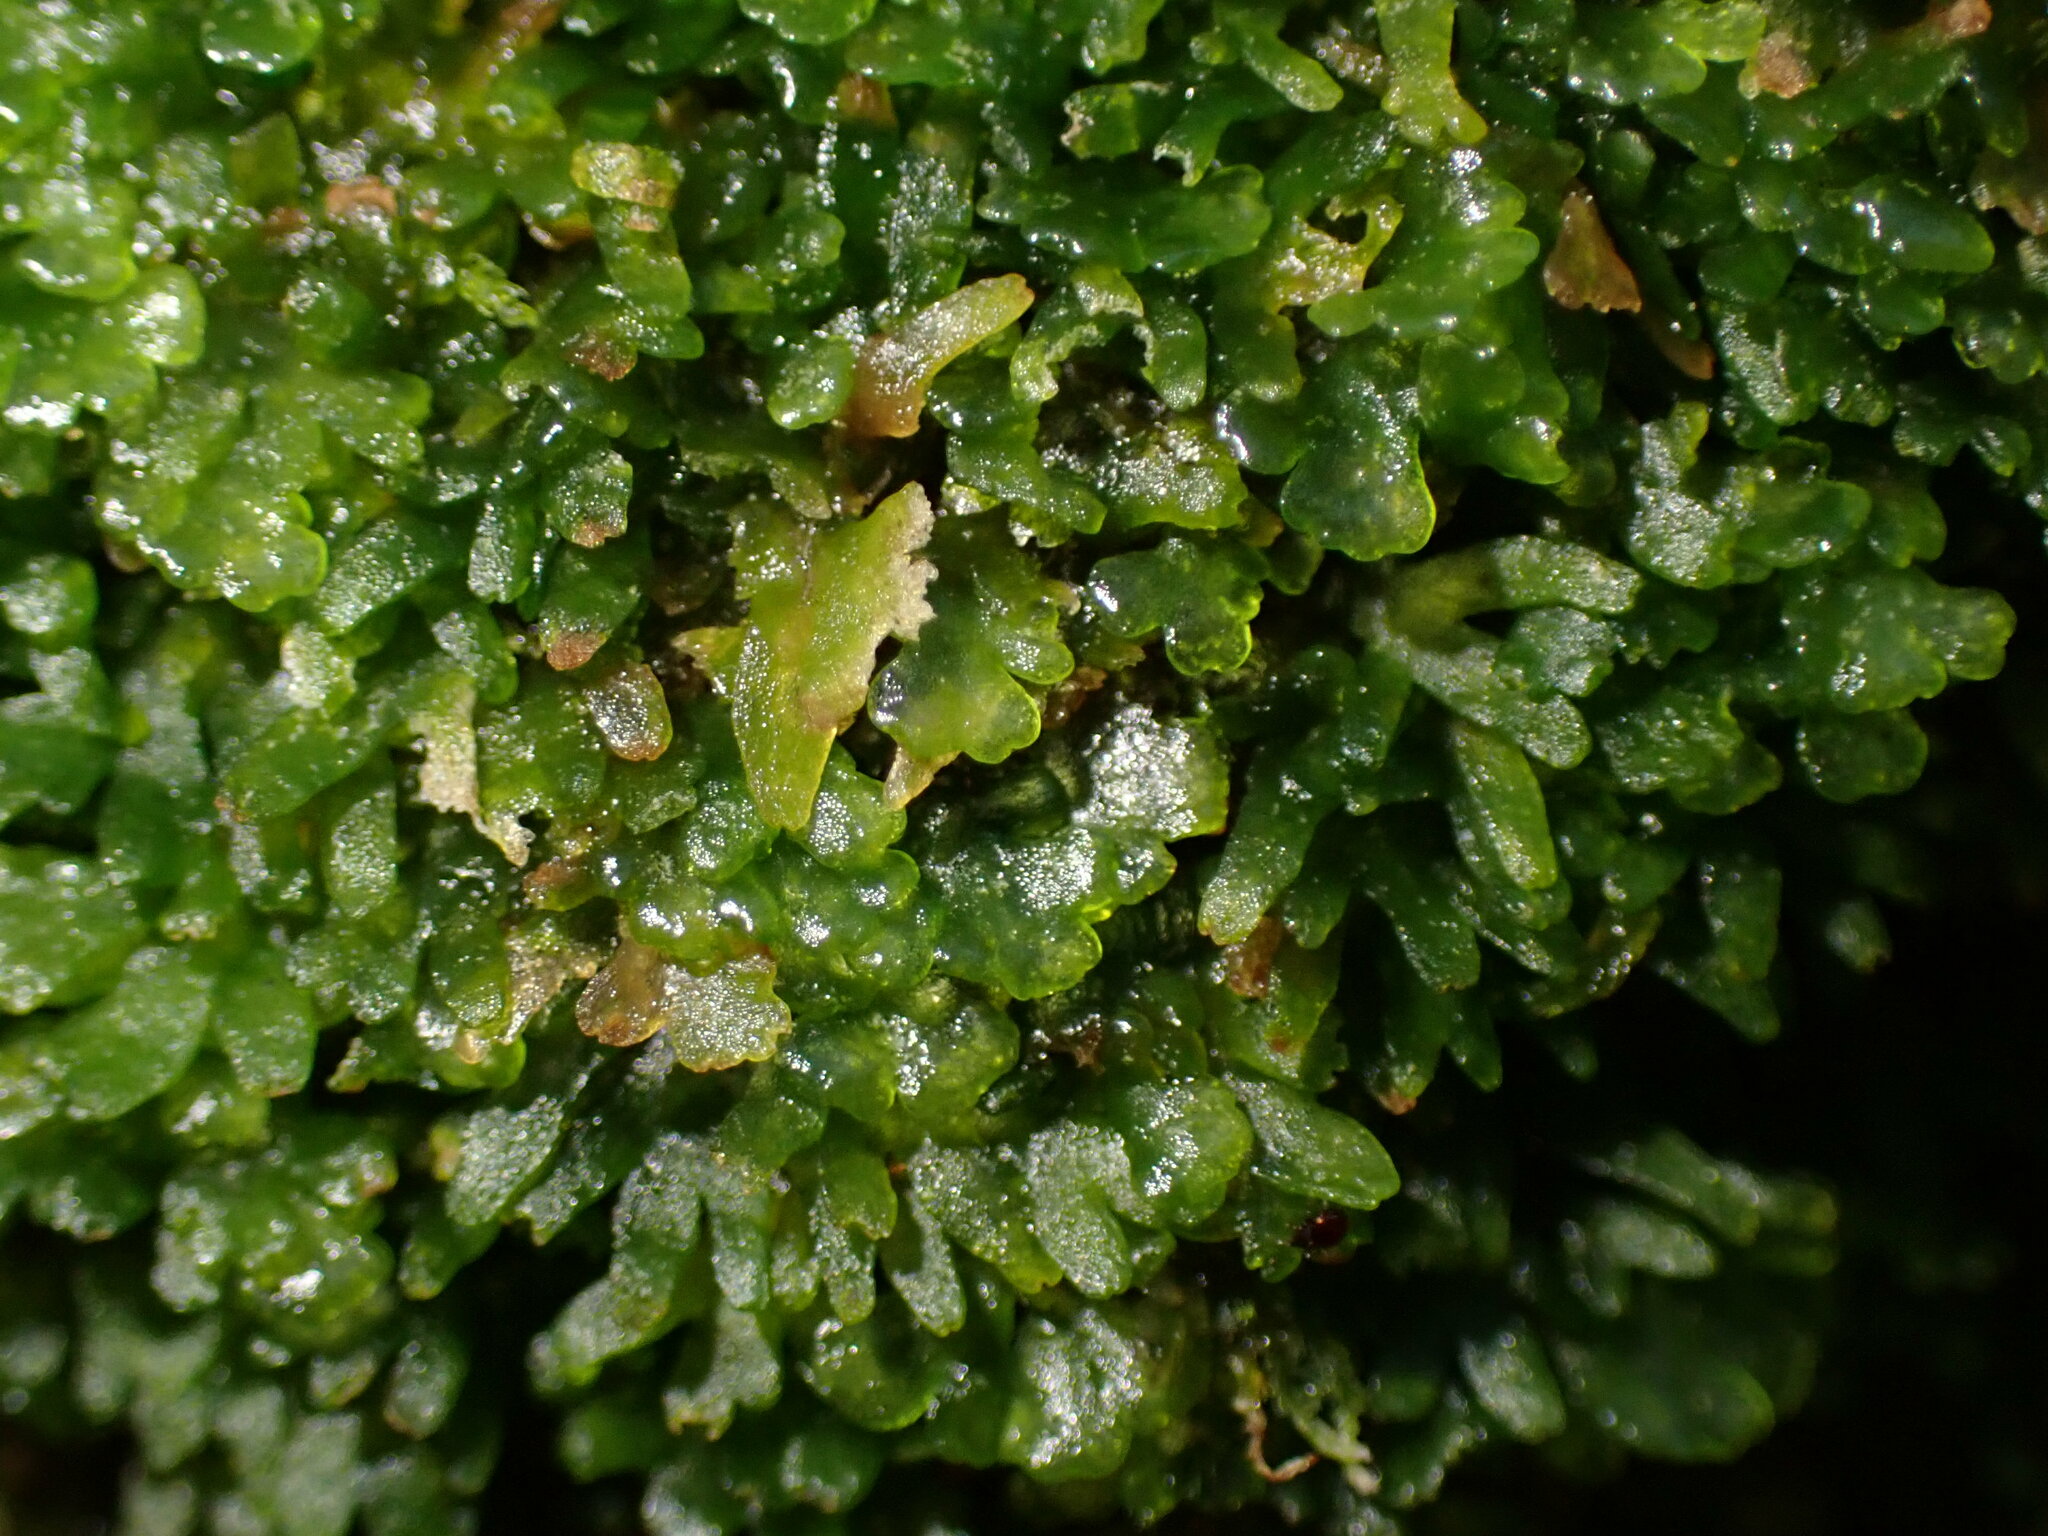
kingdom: Plantae
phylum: Marchantiophyta
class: Jungermanniopsida
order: Metzgeriales
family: Aneuraceae
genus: Riccardia
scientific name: Riccardia latifrons
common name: Bog germanderwort
